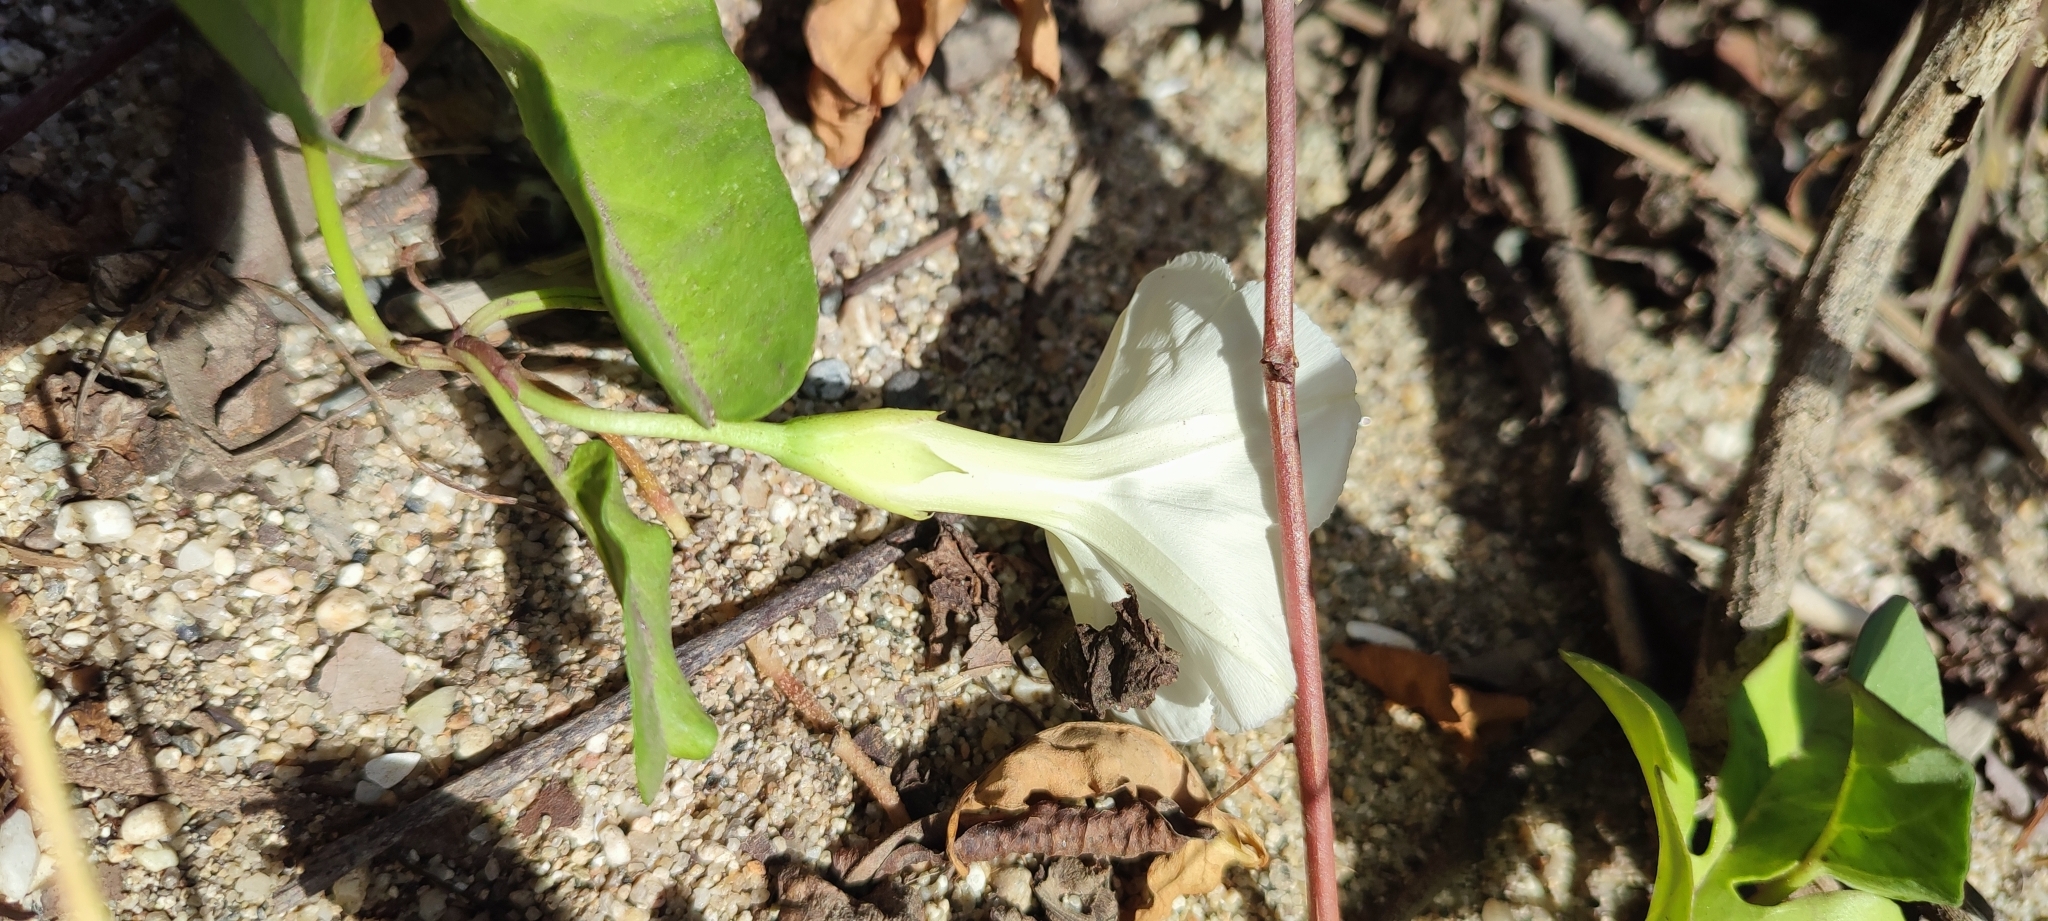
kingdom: Plantae
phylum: Tracheophyta
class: Magnoliopsida
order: Solanales
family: Convolvulaceae
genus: Ipomoea
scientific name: Ipomoea imperati
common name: Fiddle-leaf morning-glory
